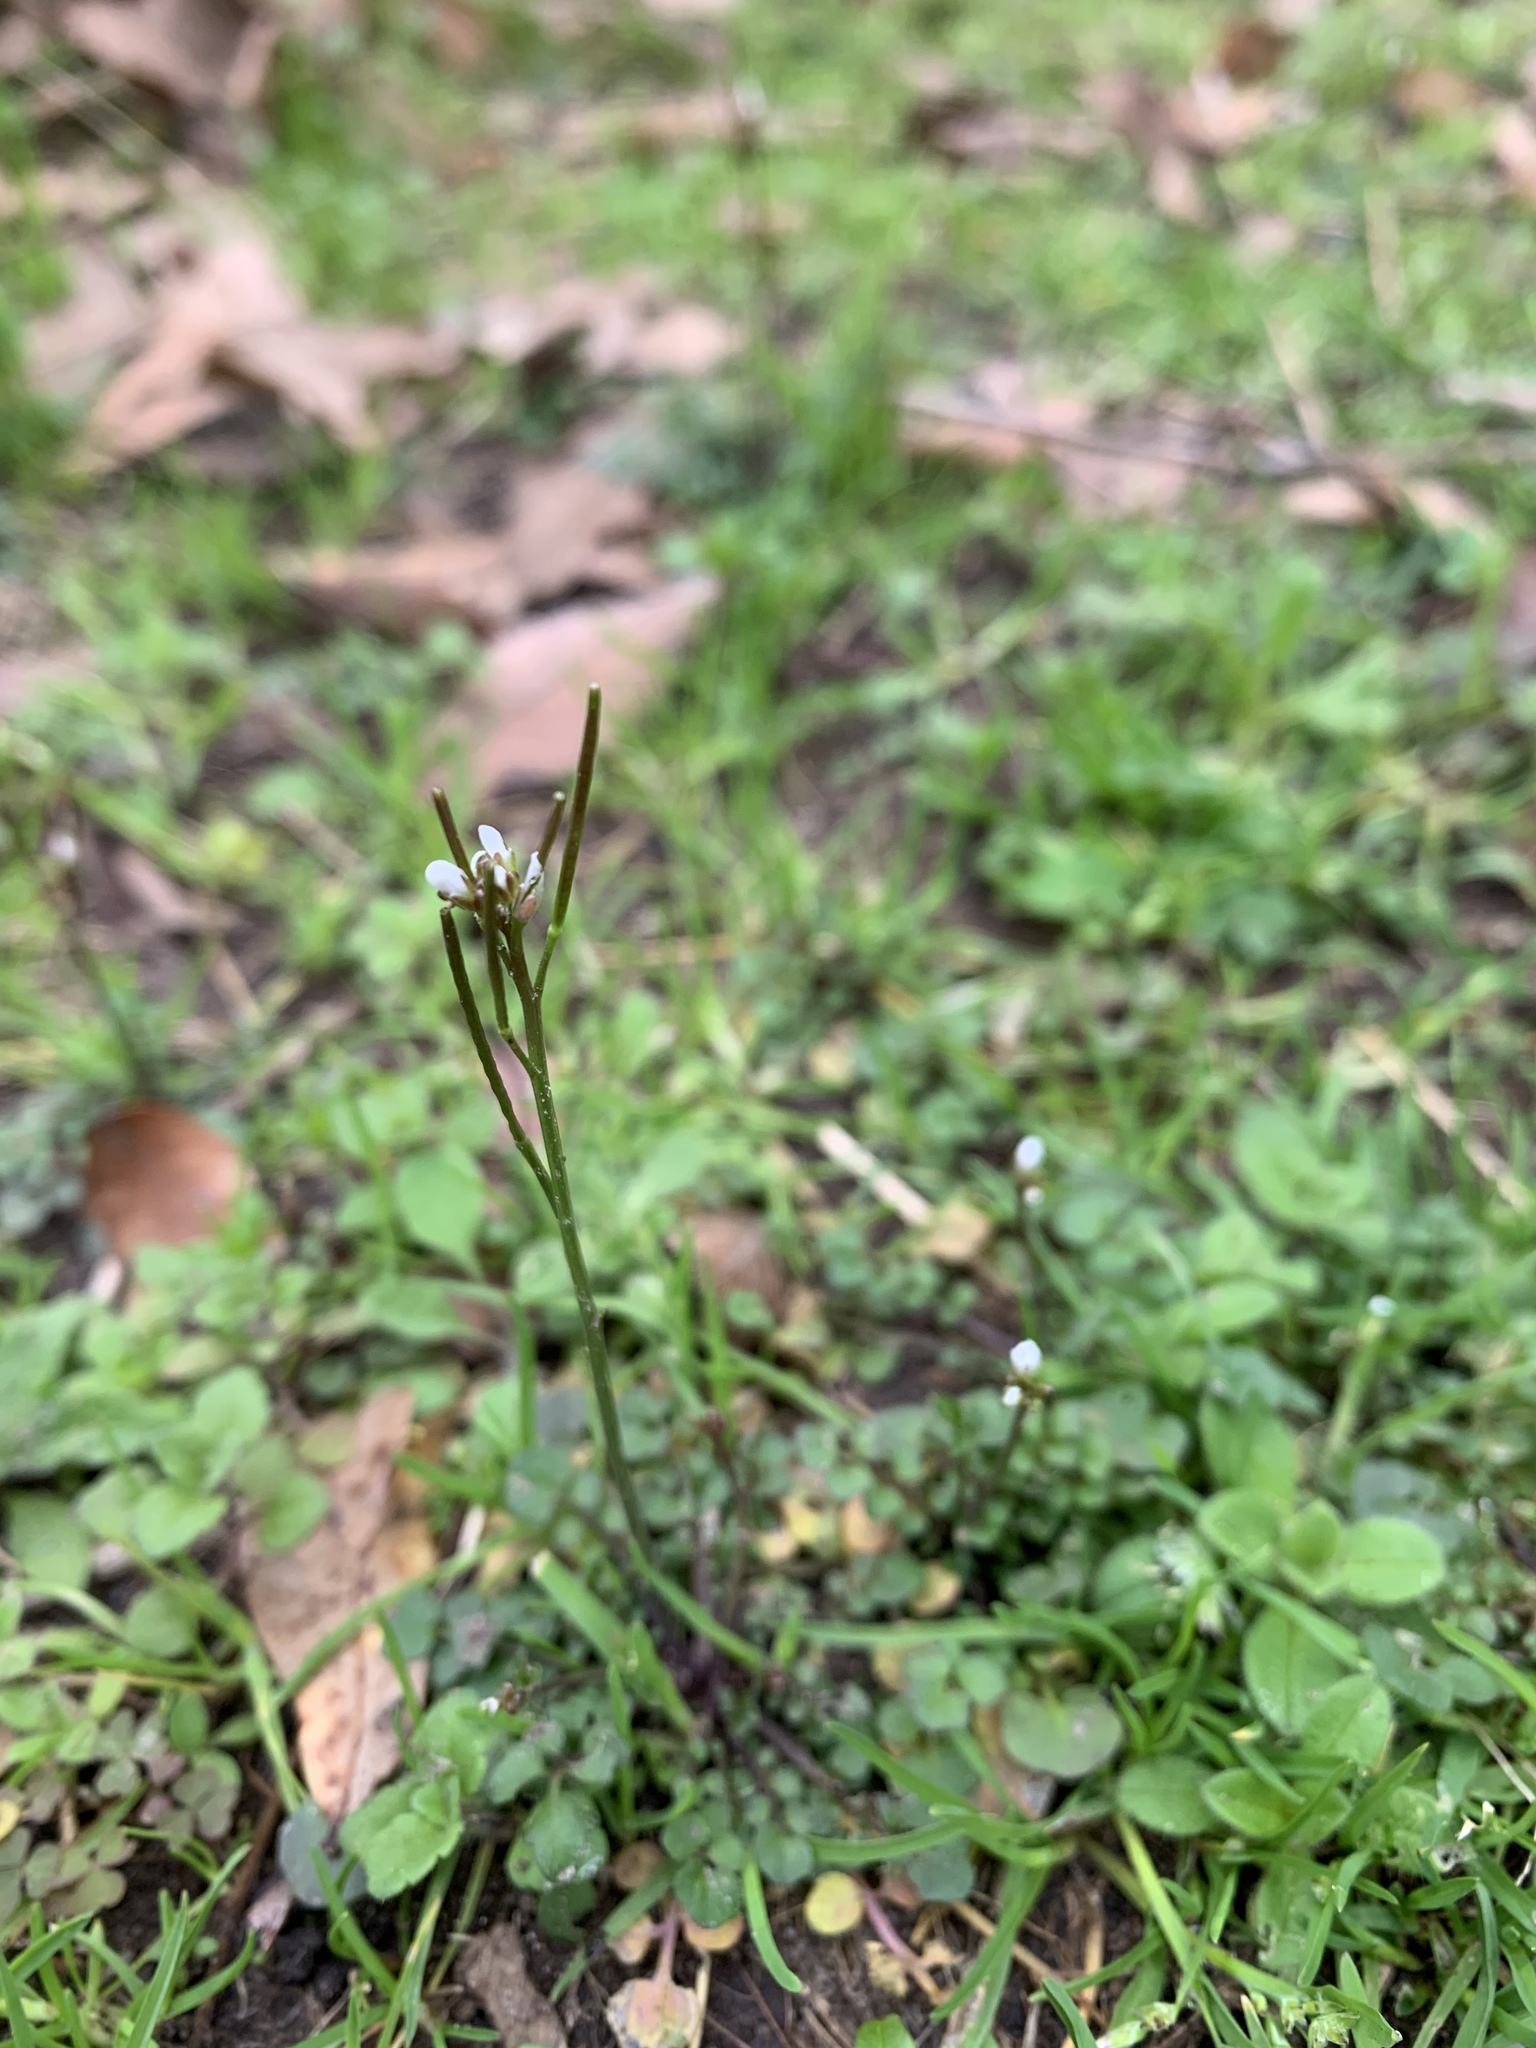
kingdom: Plantae
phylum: Tracheophyta
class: Magnoliopsida
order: Brassicales
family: Brassicaceae
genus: Cardamine
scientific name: Cardamine hirsuta
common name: Hairy bittercress
